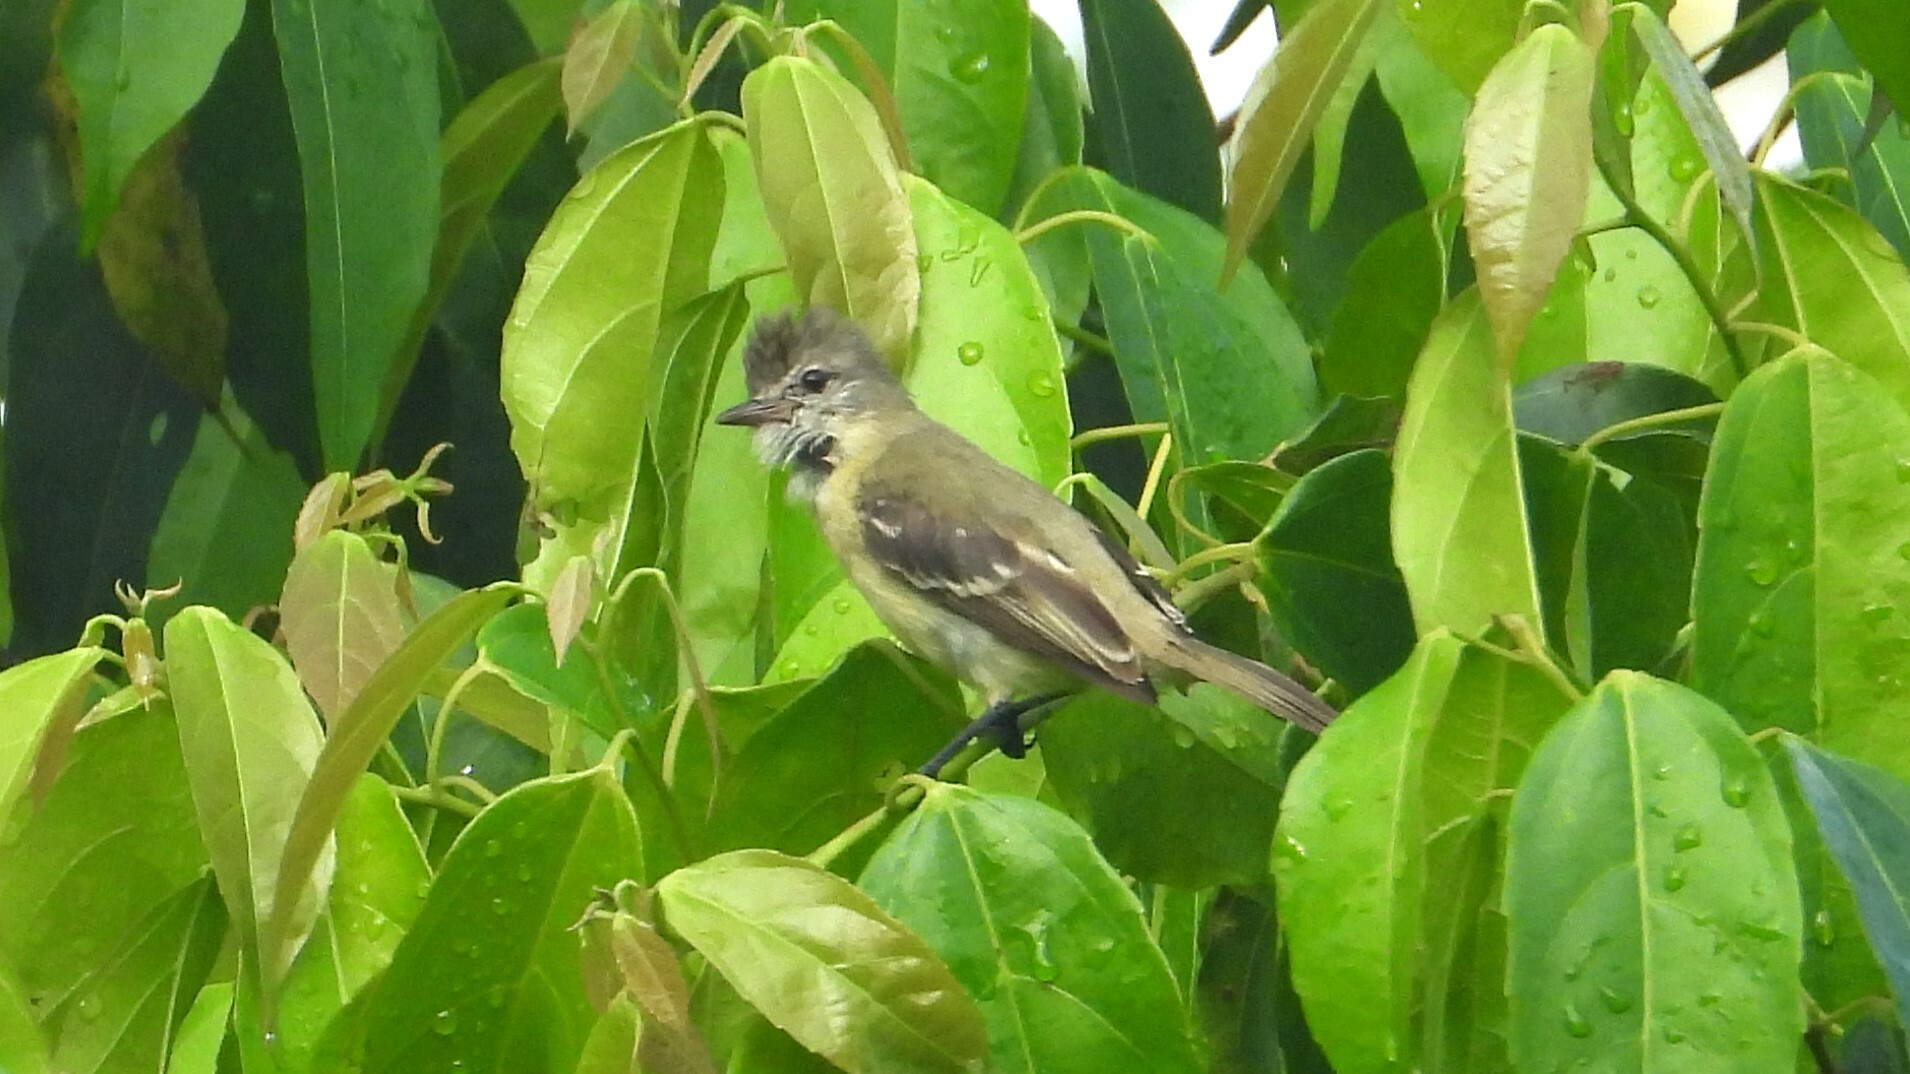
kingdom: Animalia
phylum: Chordata
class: Aves
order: Passeriformes
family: Tyrannidae
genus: Elaenia
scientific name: Elaenia flavogaster
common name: Yellow-bellied elaenia
